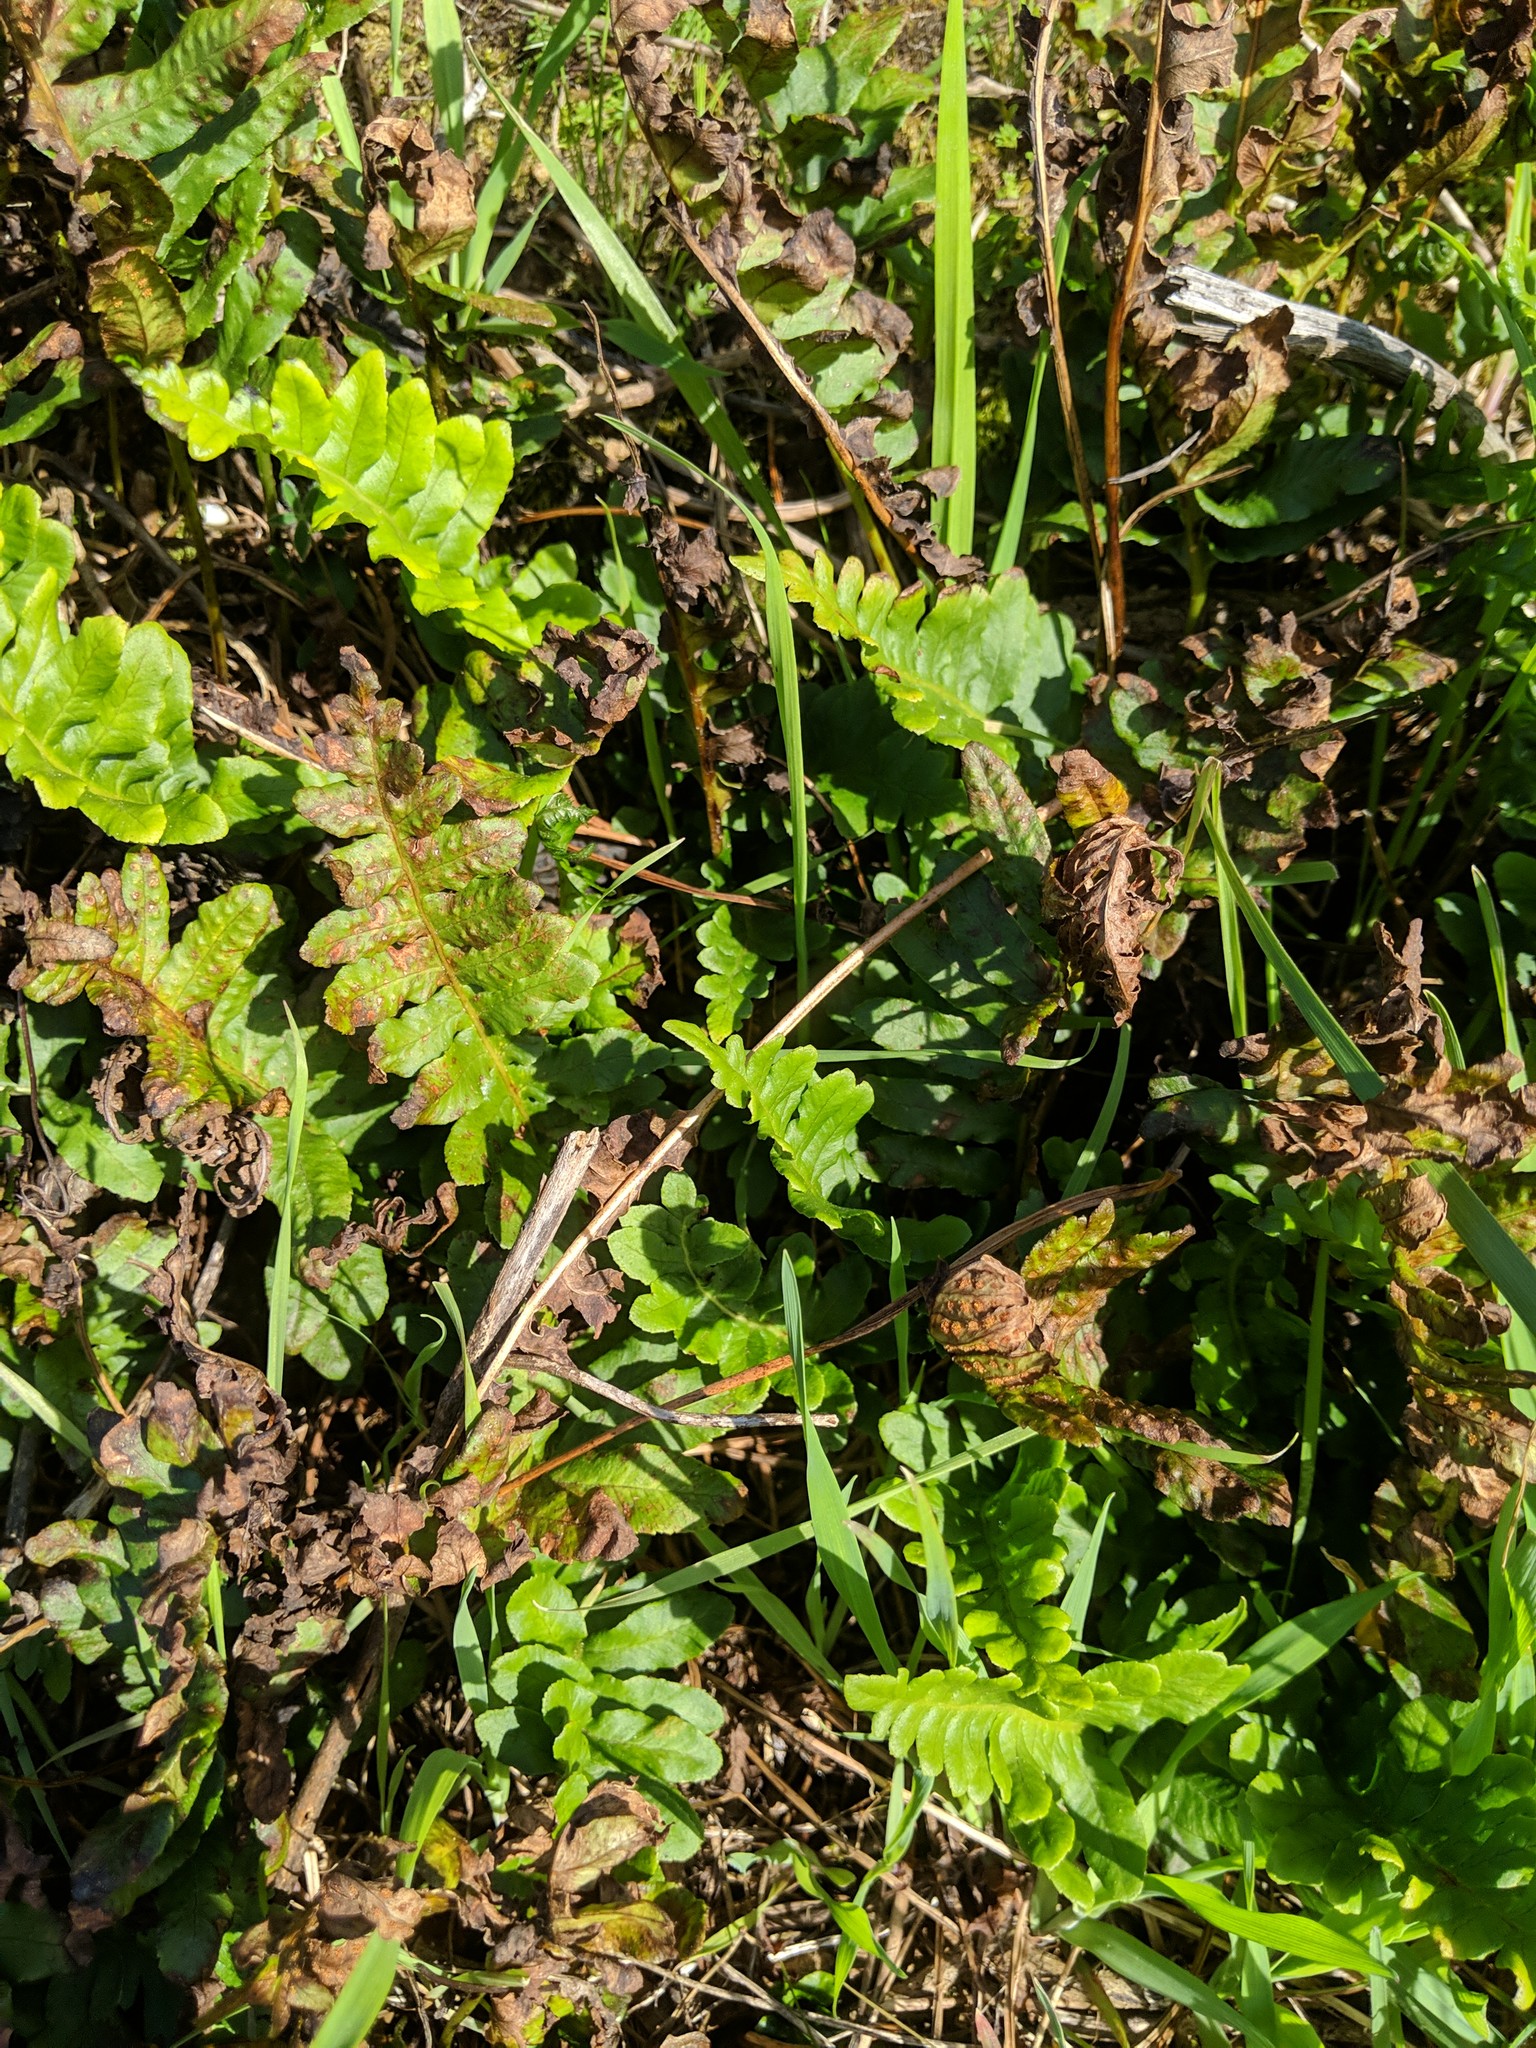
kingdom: Plantae
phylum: Tracheophyta
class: Polypodiopsida
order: Polypodiales
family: Polypodiaceae
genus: Polypodium
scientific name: Polypodium calirhiza
